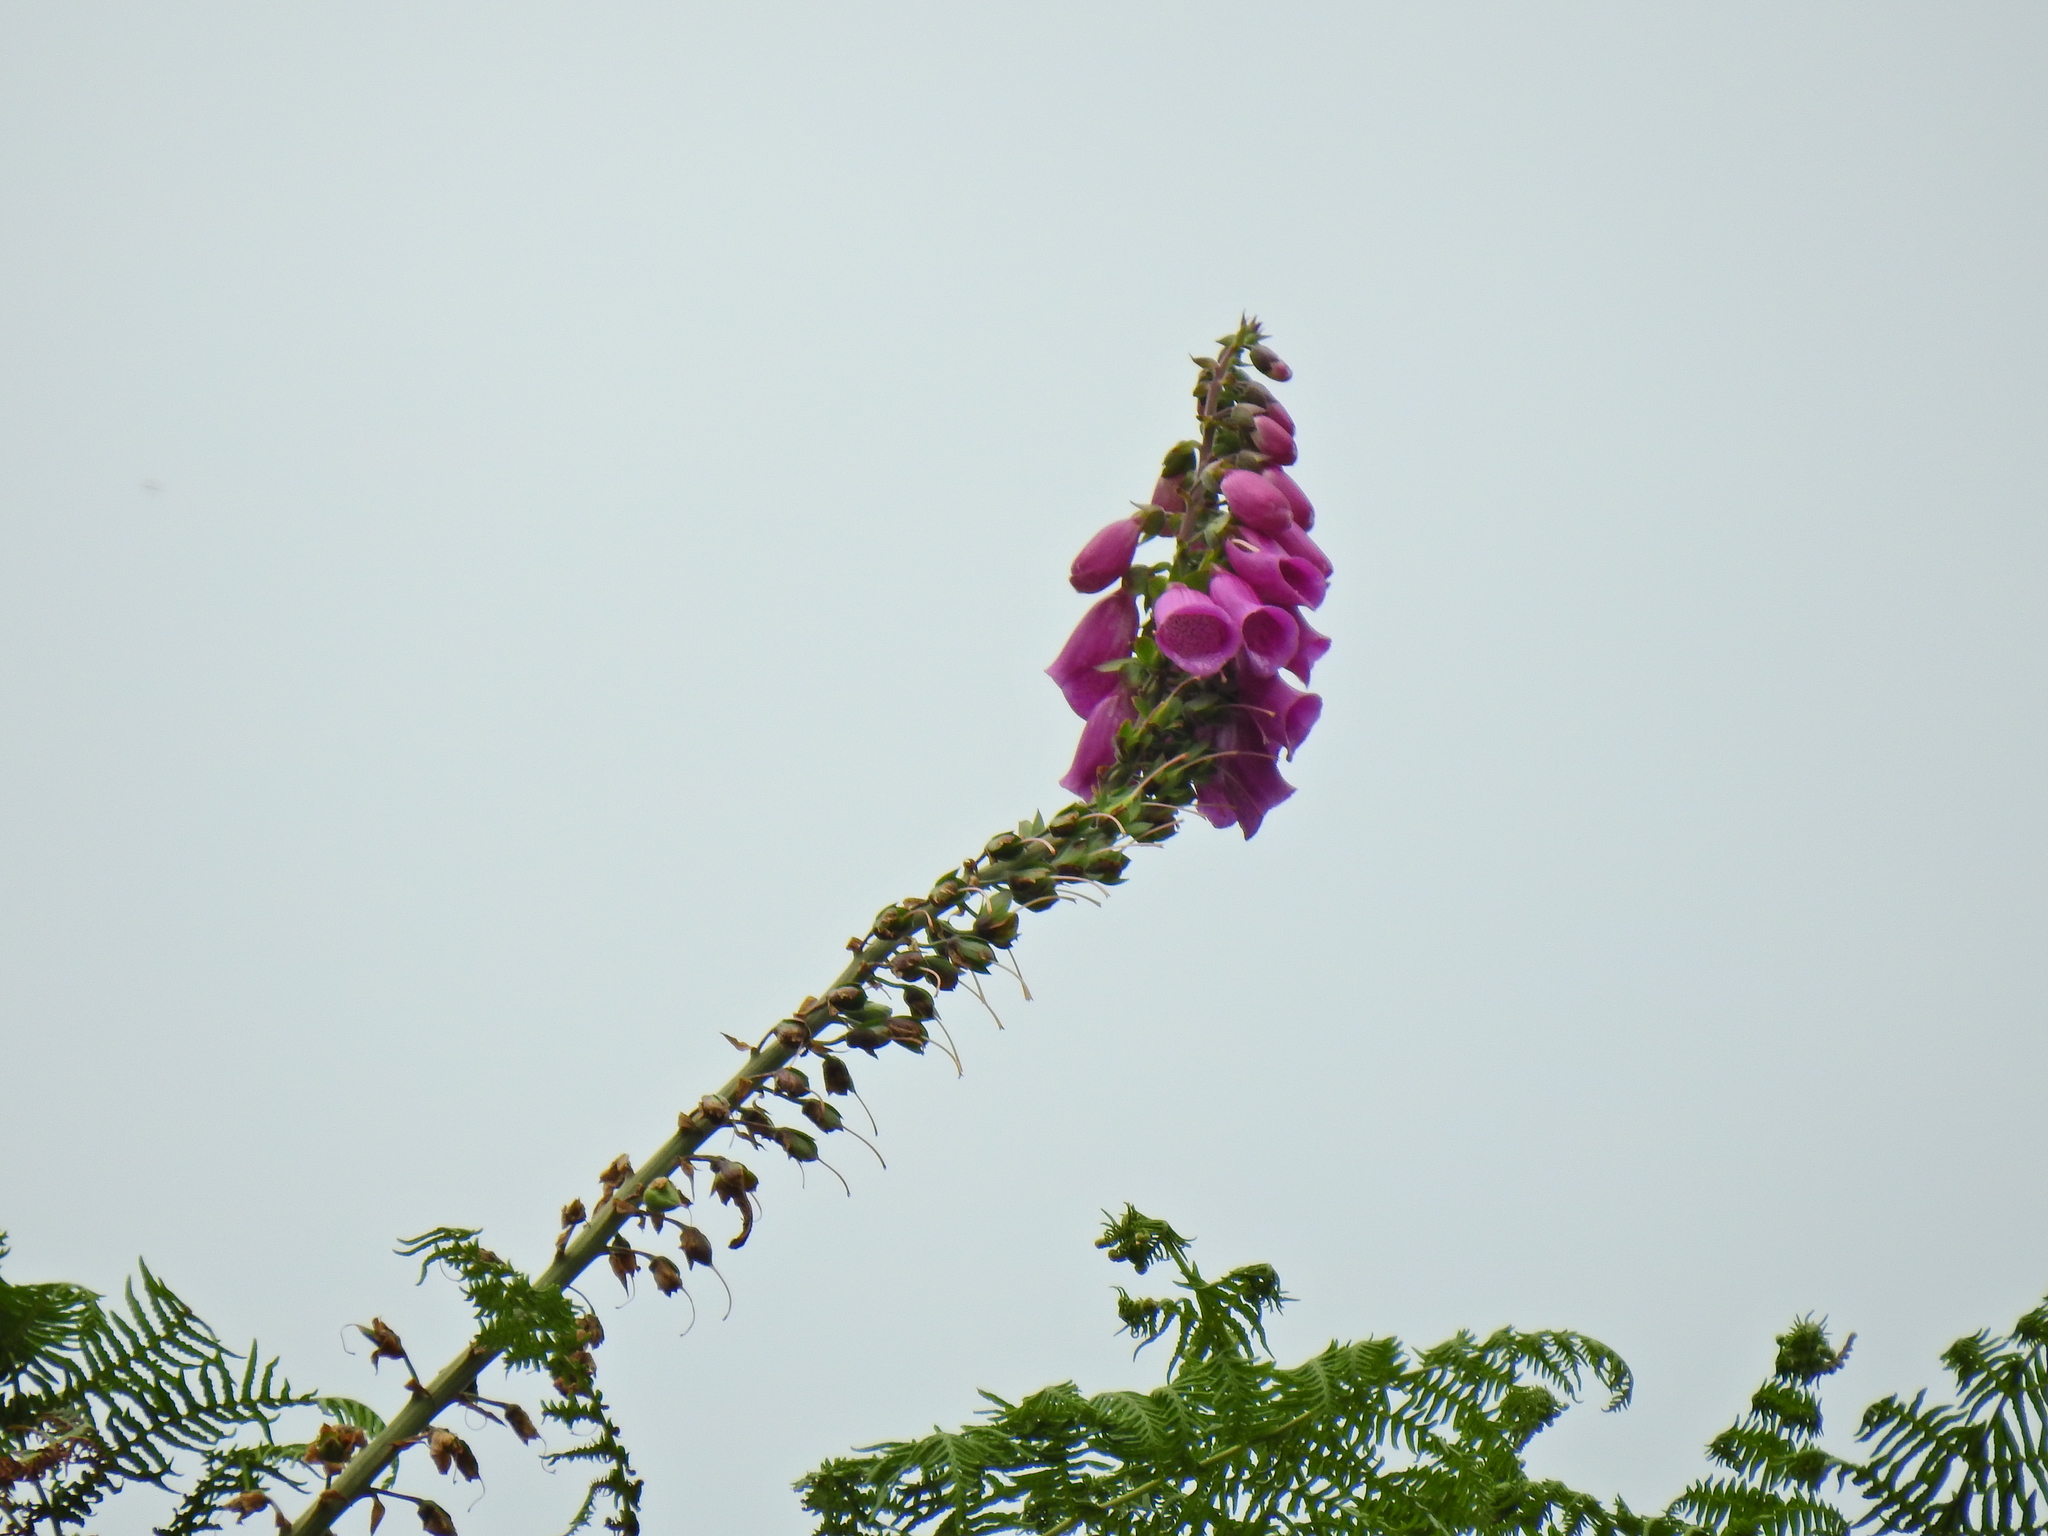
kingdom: Plantae
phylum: Tracheophyta
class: Magnoliopsida
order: Lamiales
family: Plantaginaceae
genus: Digitalis
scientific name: Digitalis purpurea
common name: Foxglove
